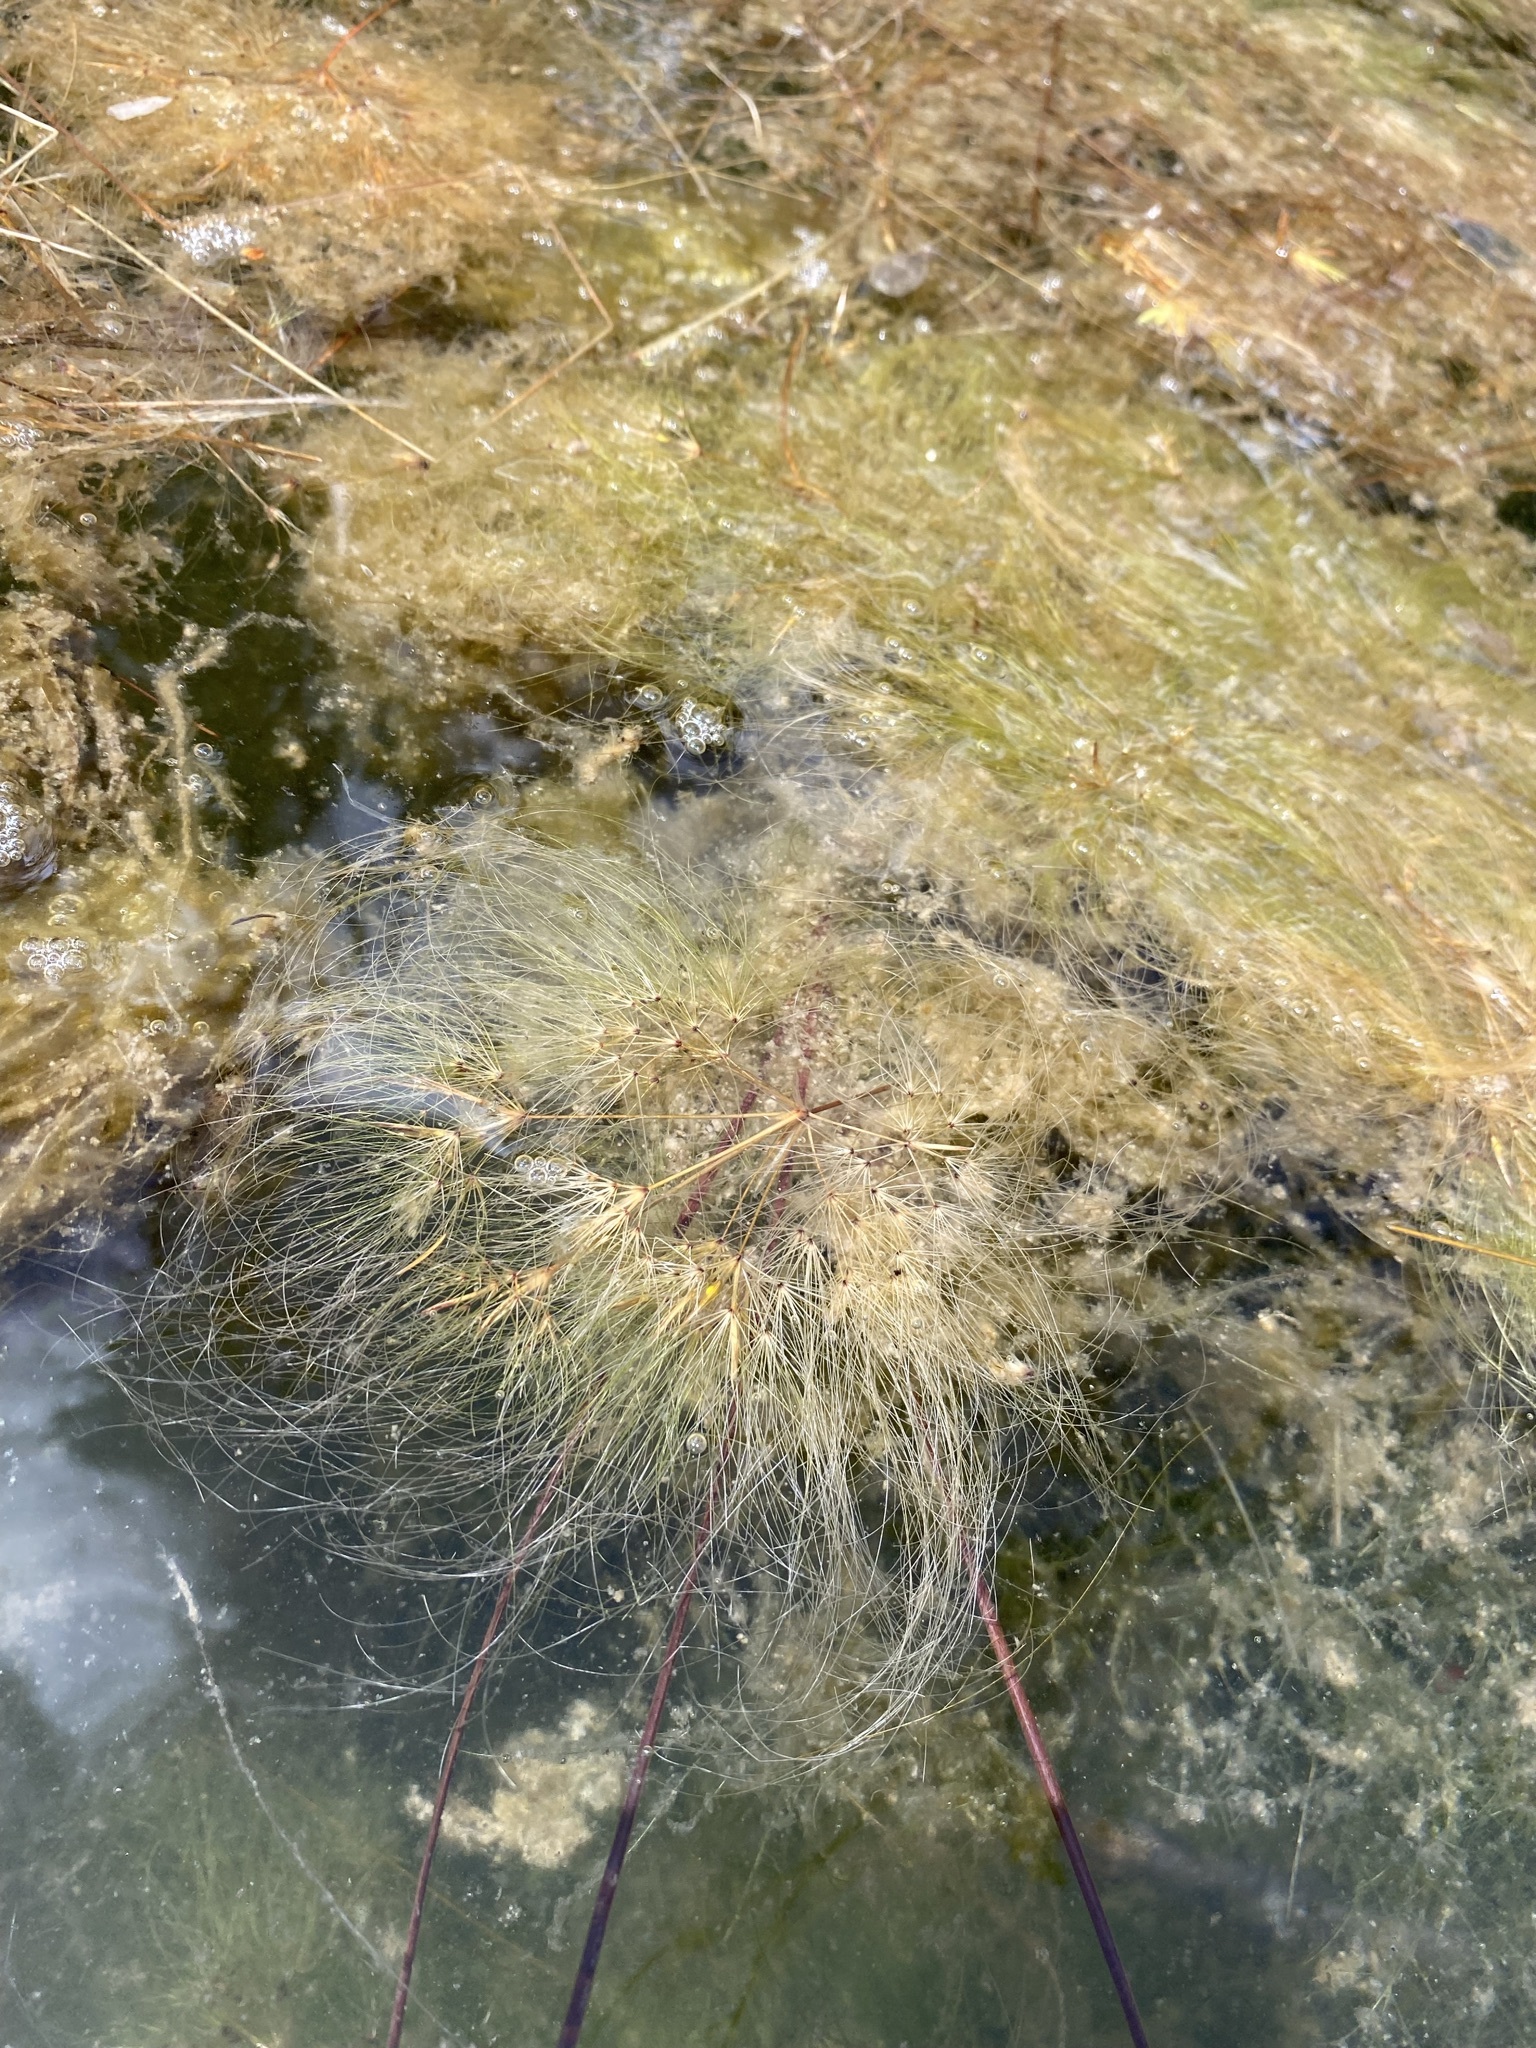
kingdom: Plantae
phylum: Tracheophyta
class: Liliopsida
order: Poales
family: Cyperaceae
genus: Eleocharis
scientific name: Eleocharis confervoides
